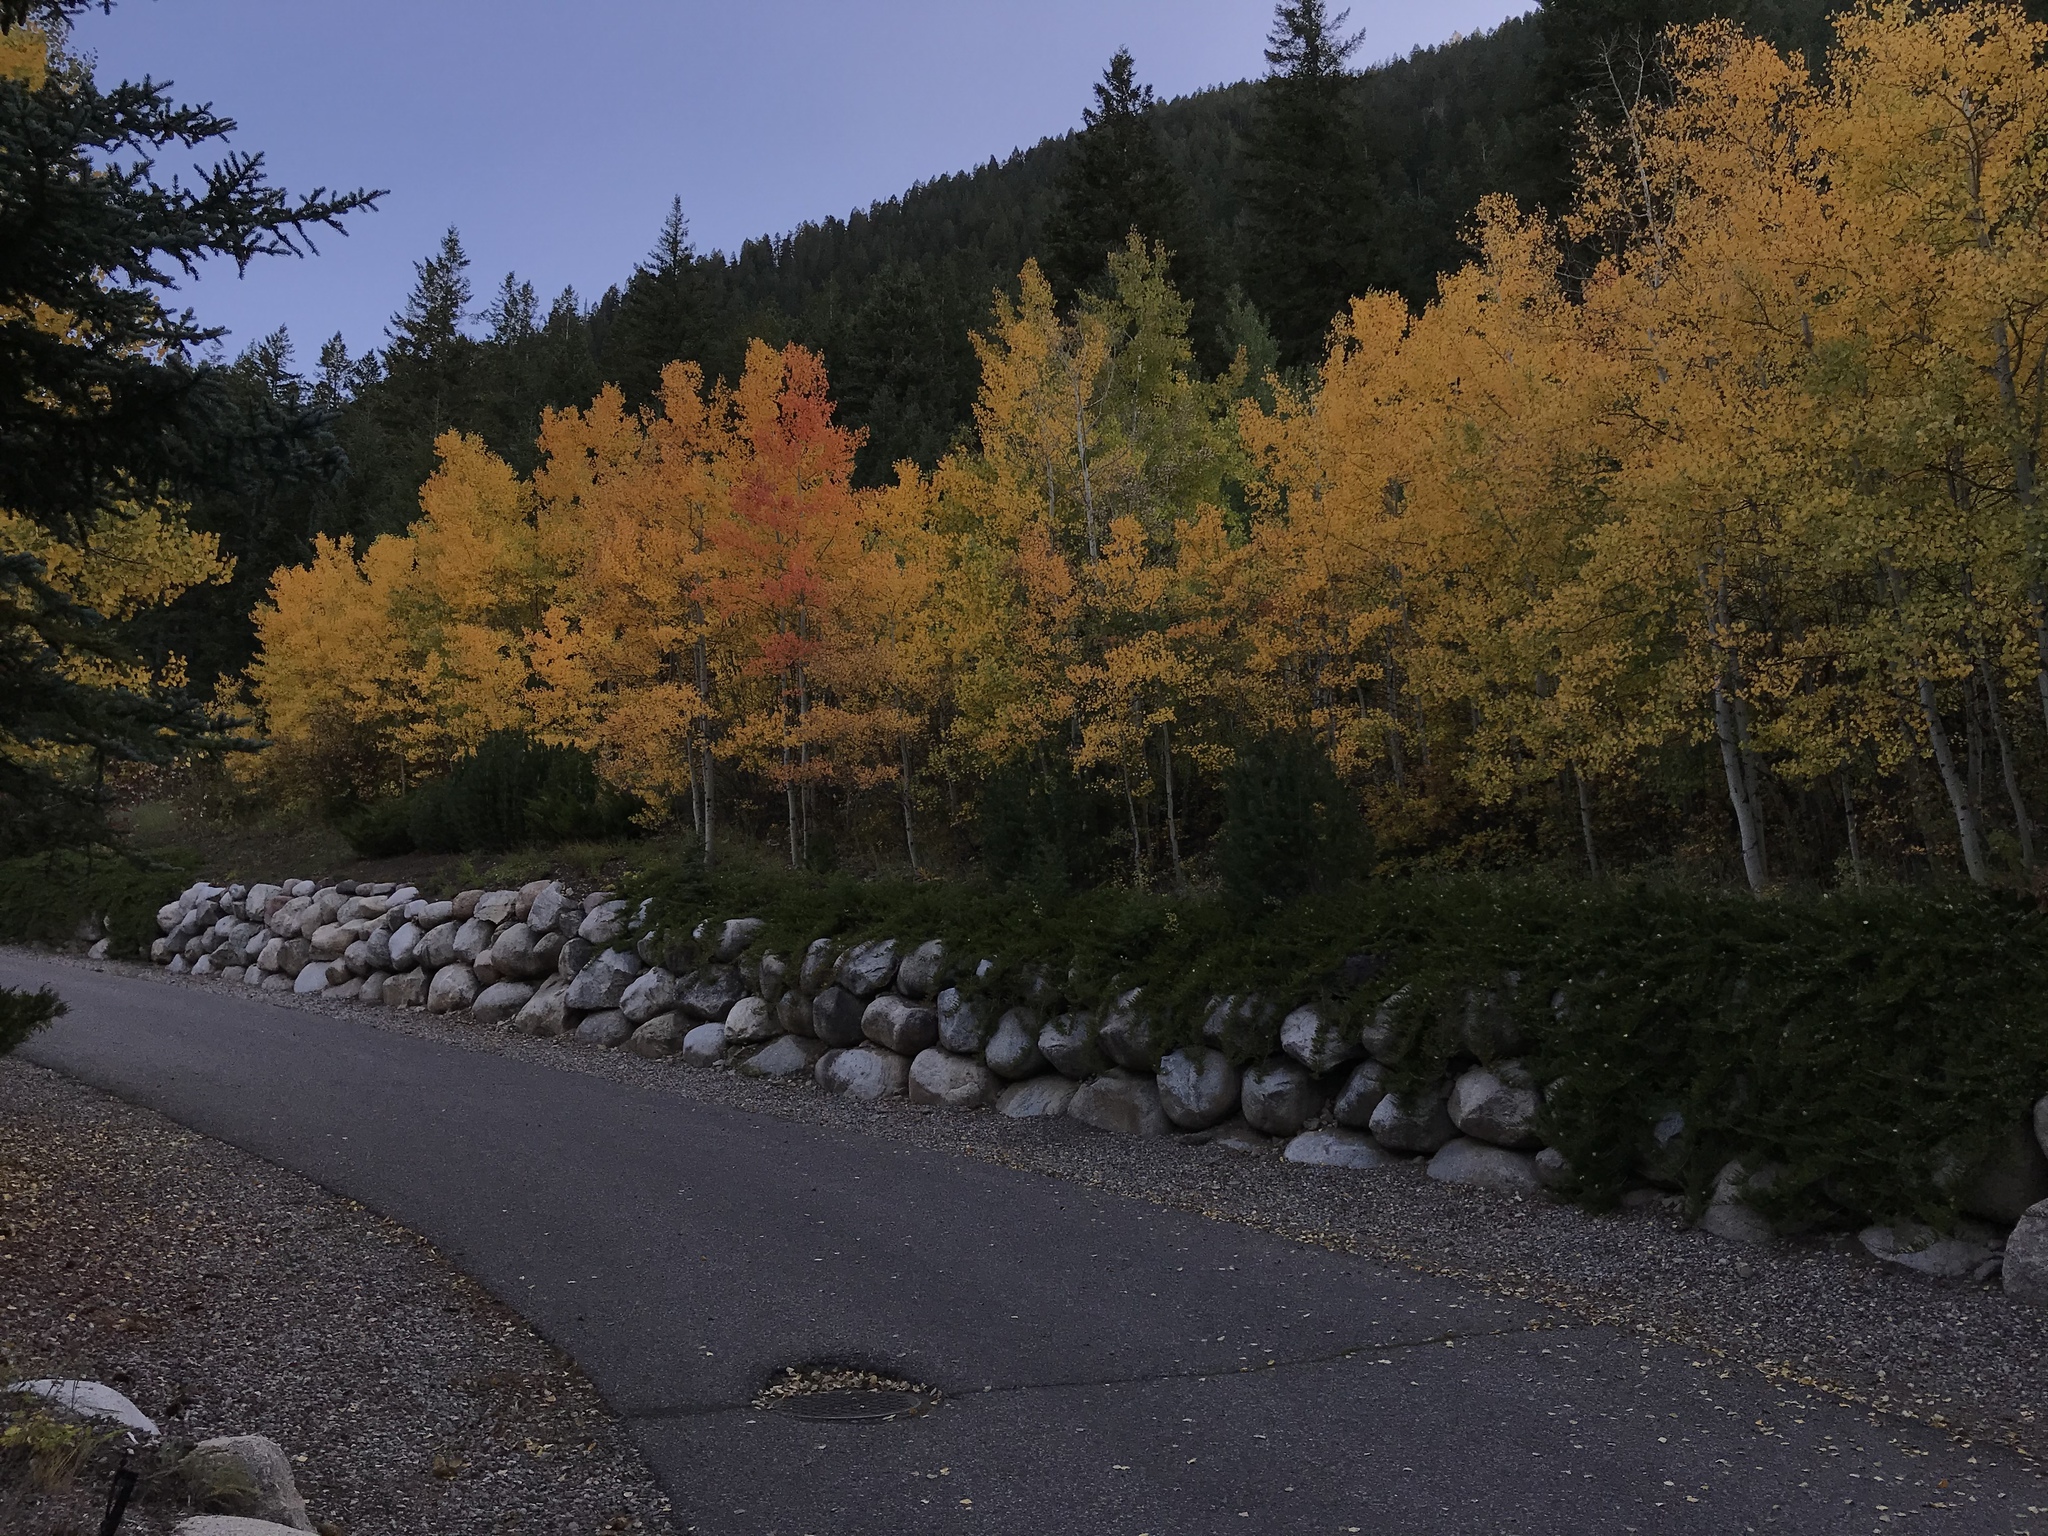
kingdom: Plantae
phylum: Tracheophyta
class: Magnoliopsida
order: Malpighiales
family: Salicaceae
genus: Populus
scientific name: Populus tremuloides
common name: Quaking aspen
